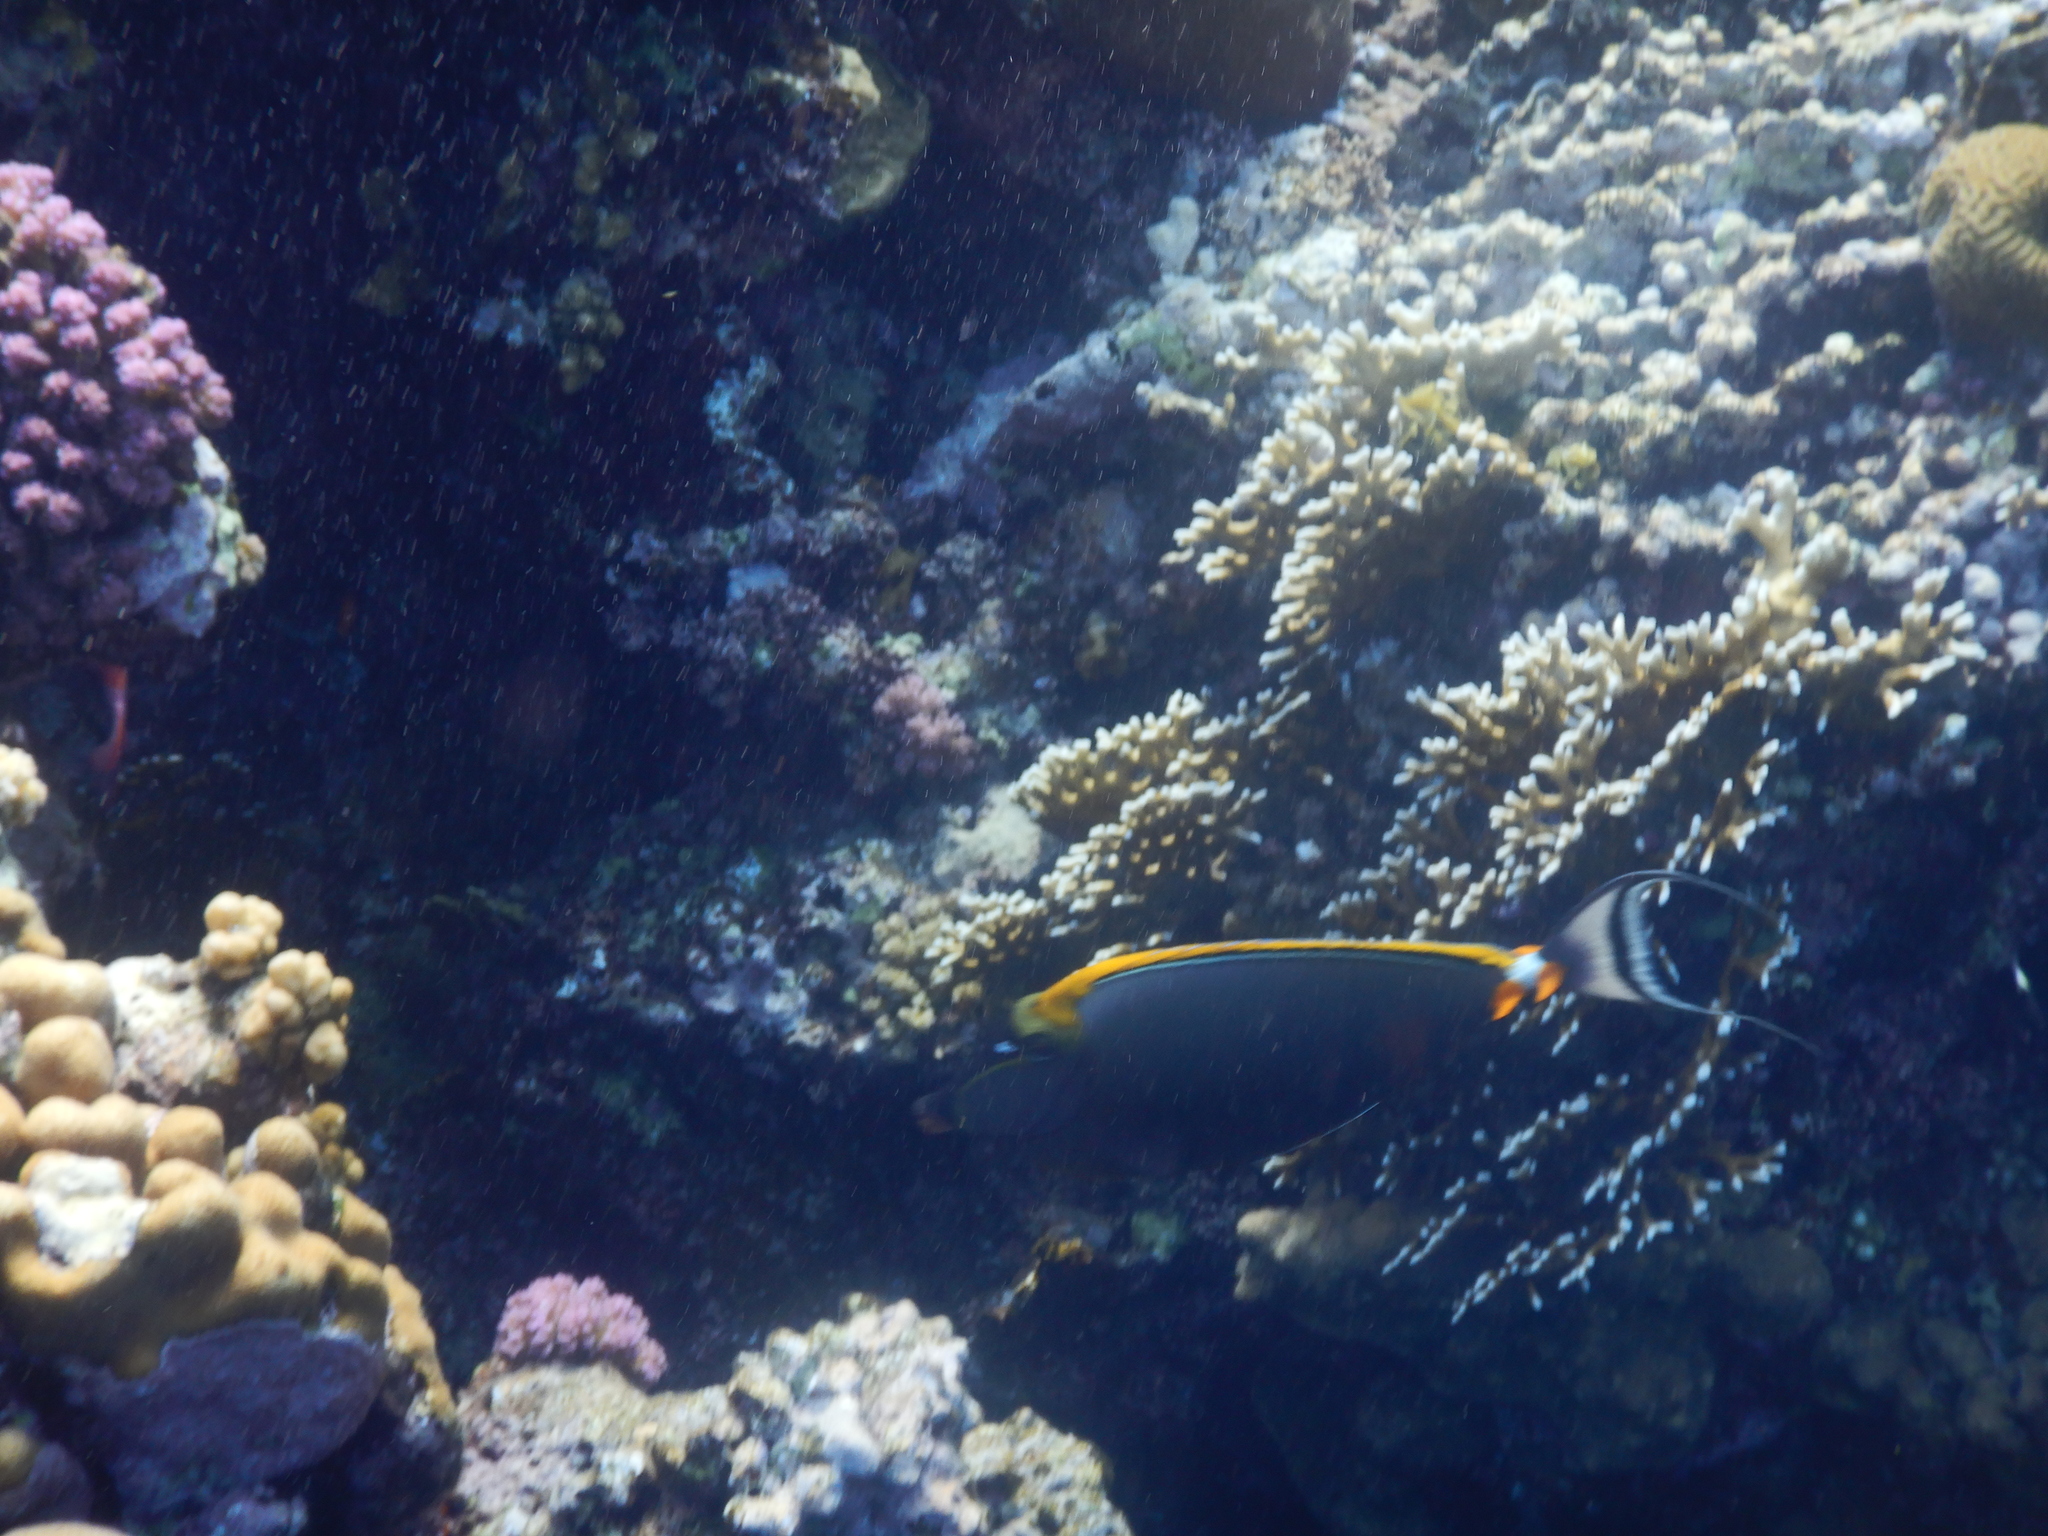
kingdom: Animalia
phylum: Chordata
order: Perciformes
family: Acanthuridae
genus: Naso
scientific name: Naso elegans
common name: Orangespine unicornfish
